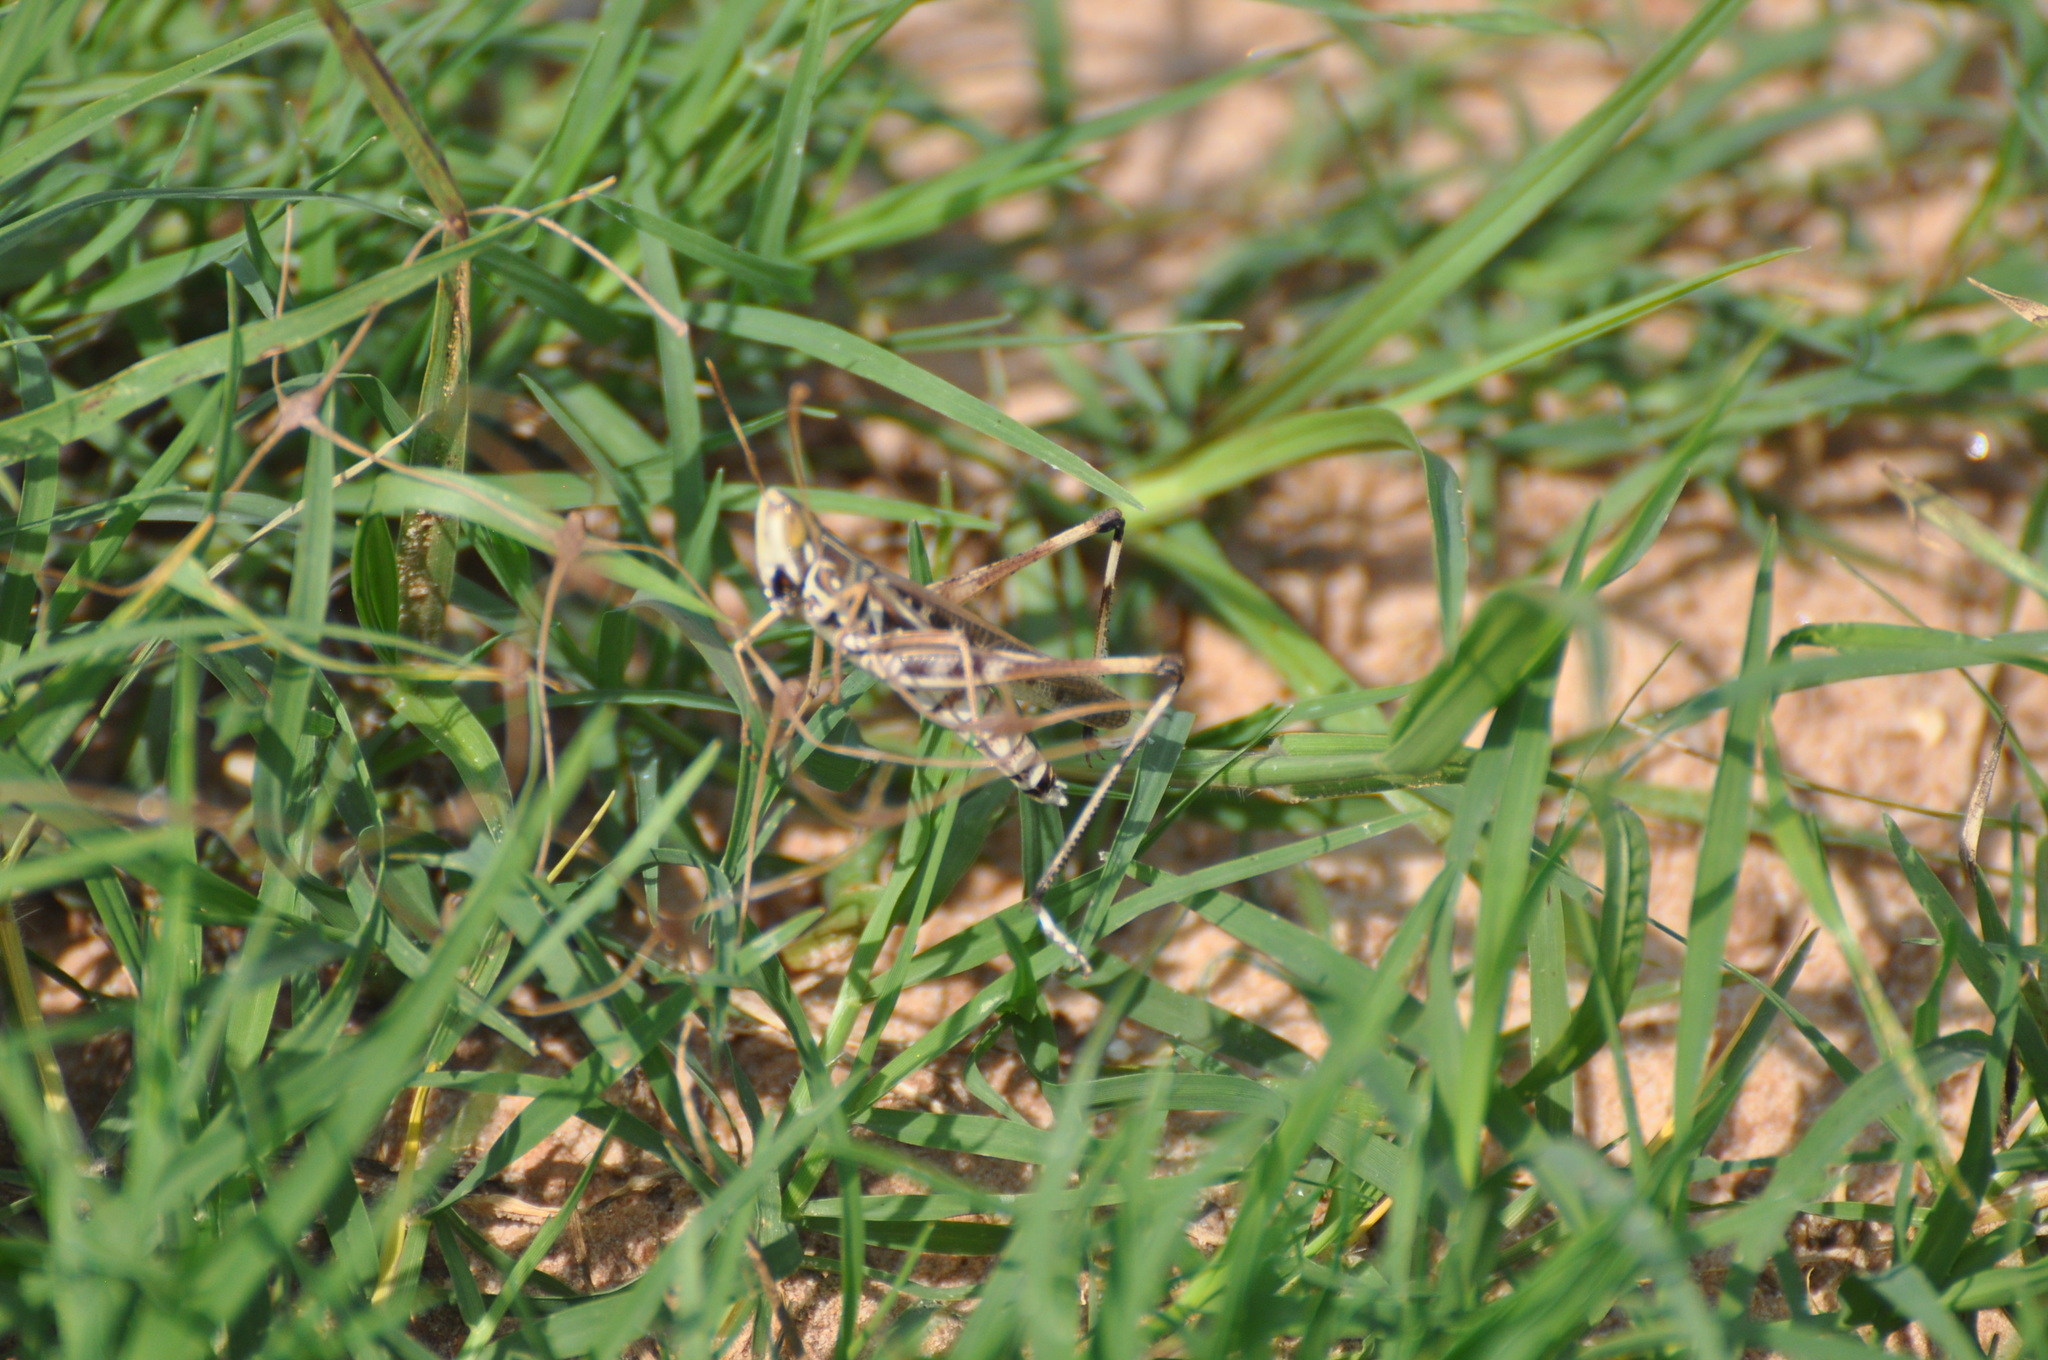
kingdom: Animalia
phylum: Arthropoda
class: Insecta
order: Orthoptera
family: Acrididae
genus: Syrbula
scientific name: Syrbula admirabilis
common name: Handsome grasshopper
